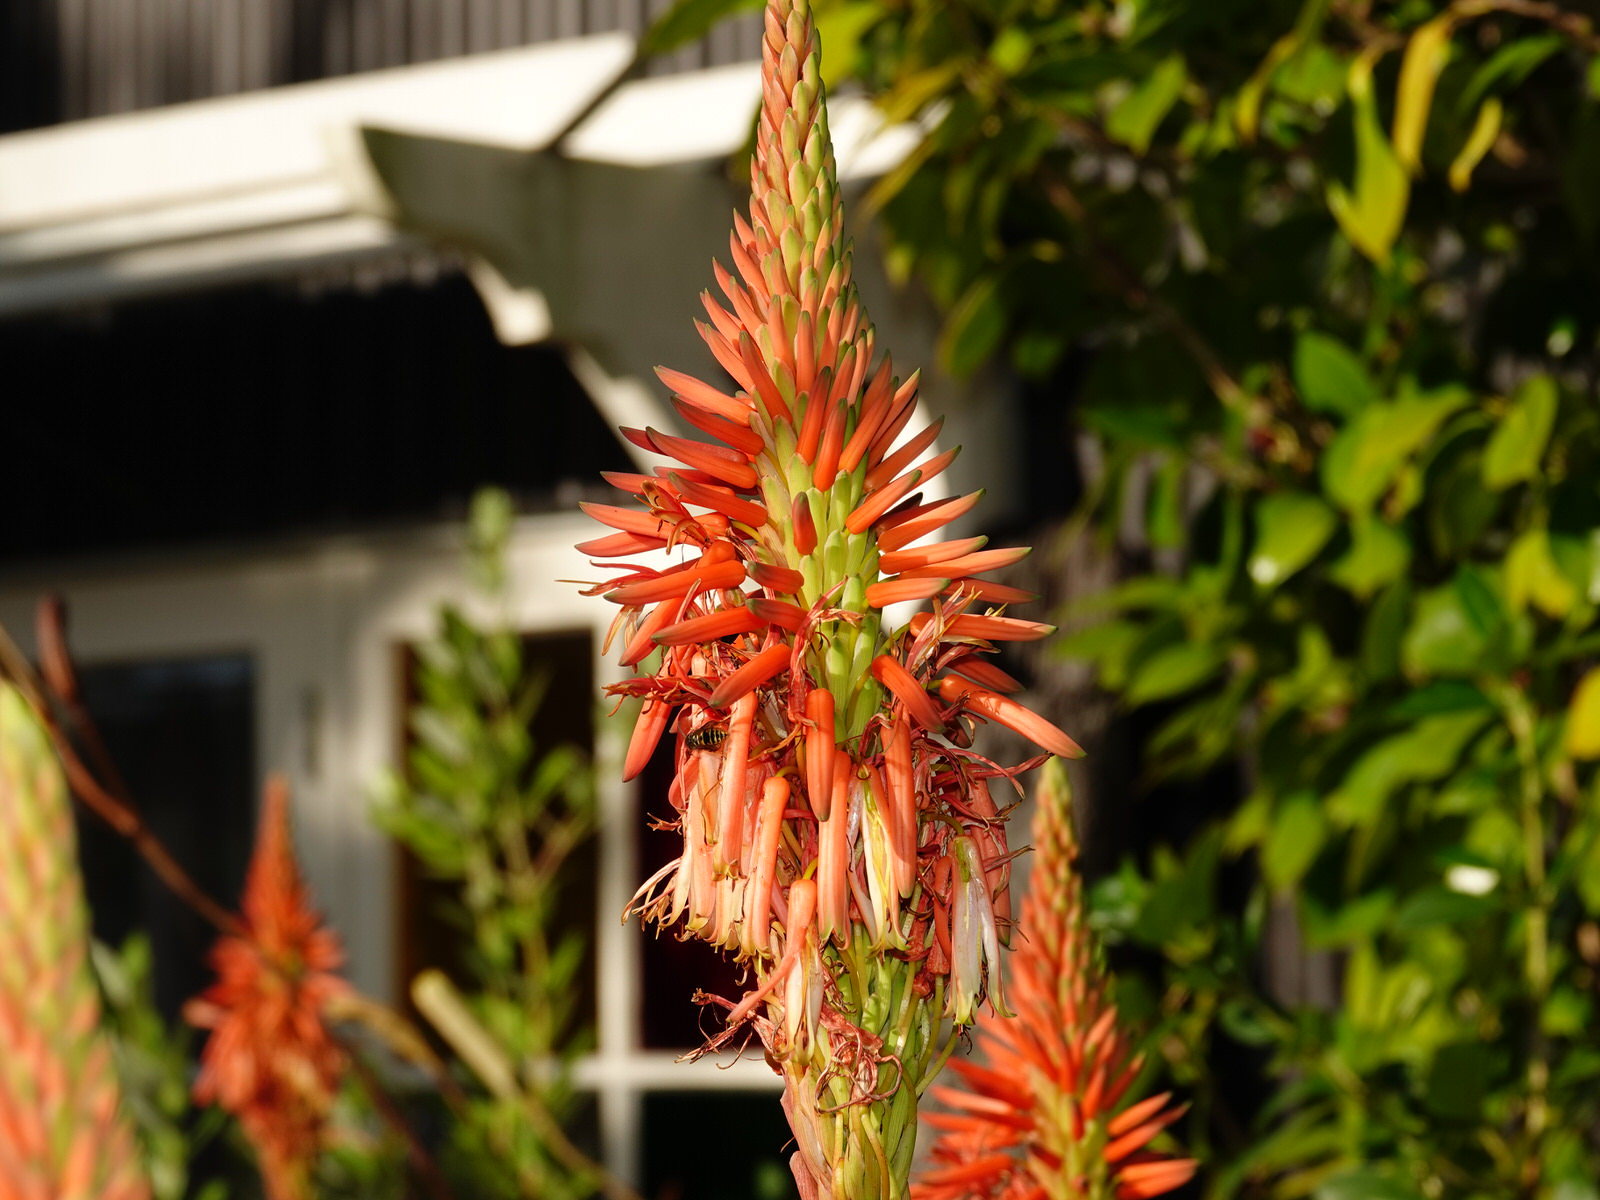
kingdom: Animalia
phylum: Arthropoda
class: Insecta
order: Hymenoptera
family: Vespidae
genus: Vespula
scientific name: Vespula vulgaris
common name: Common wasp
